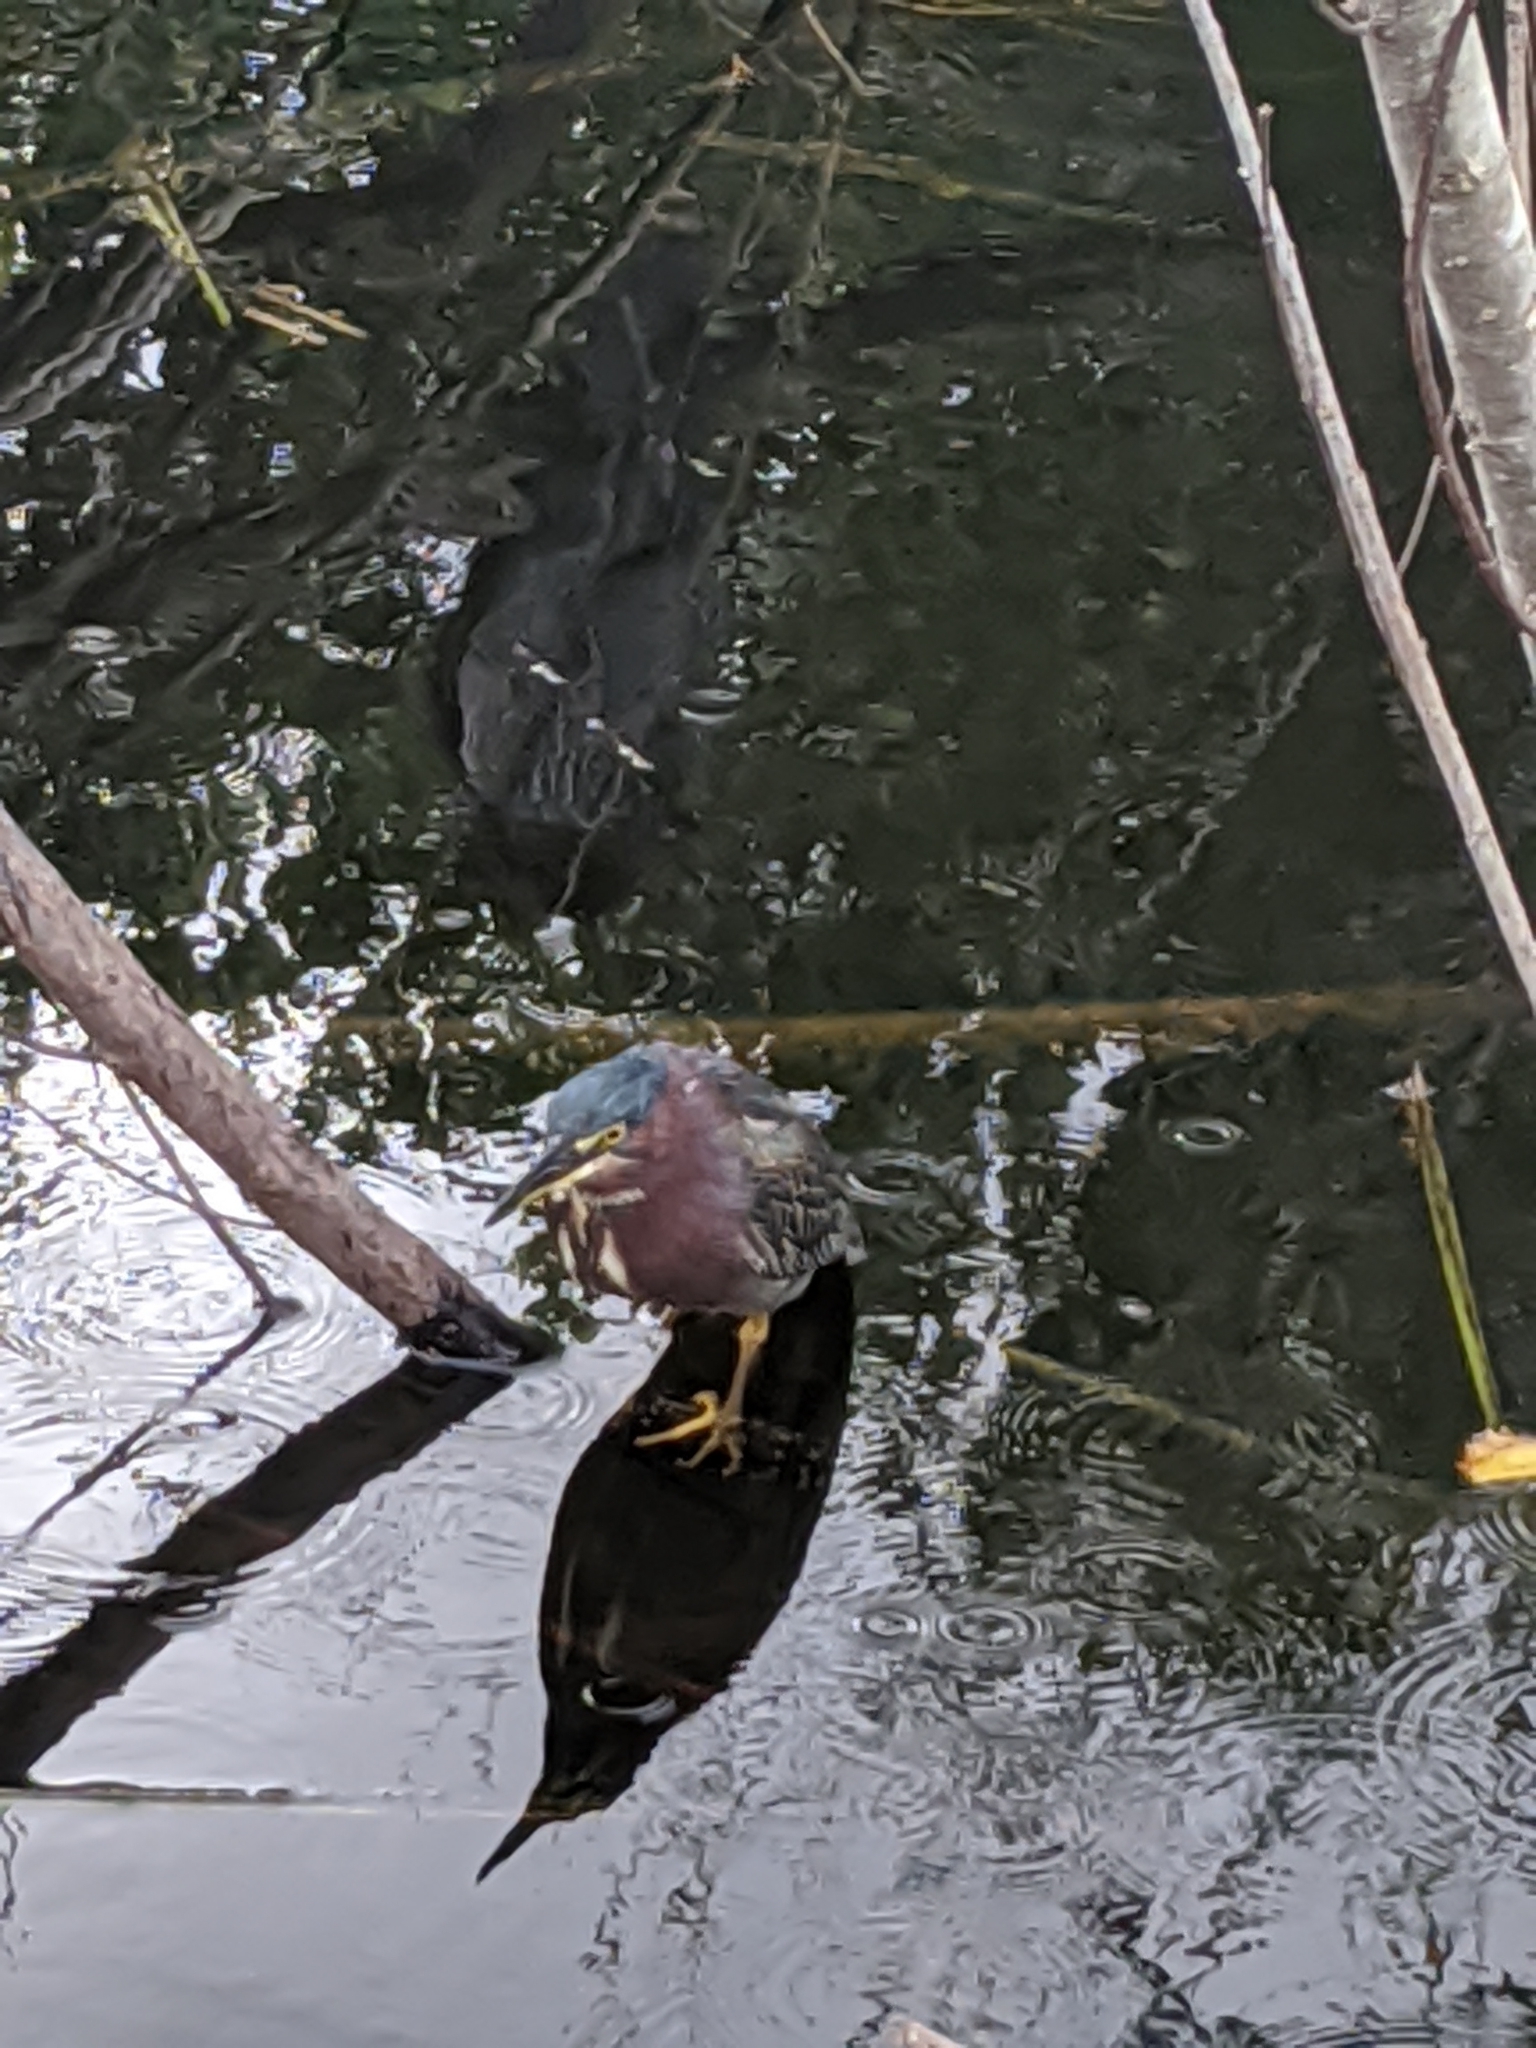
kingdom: Animalia
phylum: Chordata
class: Aves
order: Pelecaniformes
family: Ardeidae
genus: Butorides
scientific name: Butorides virescens
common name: Green heron
